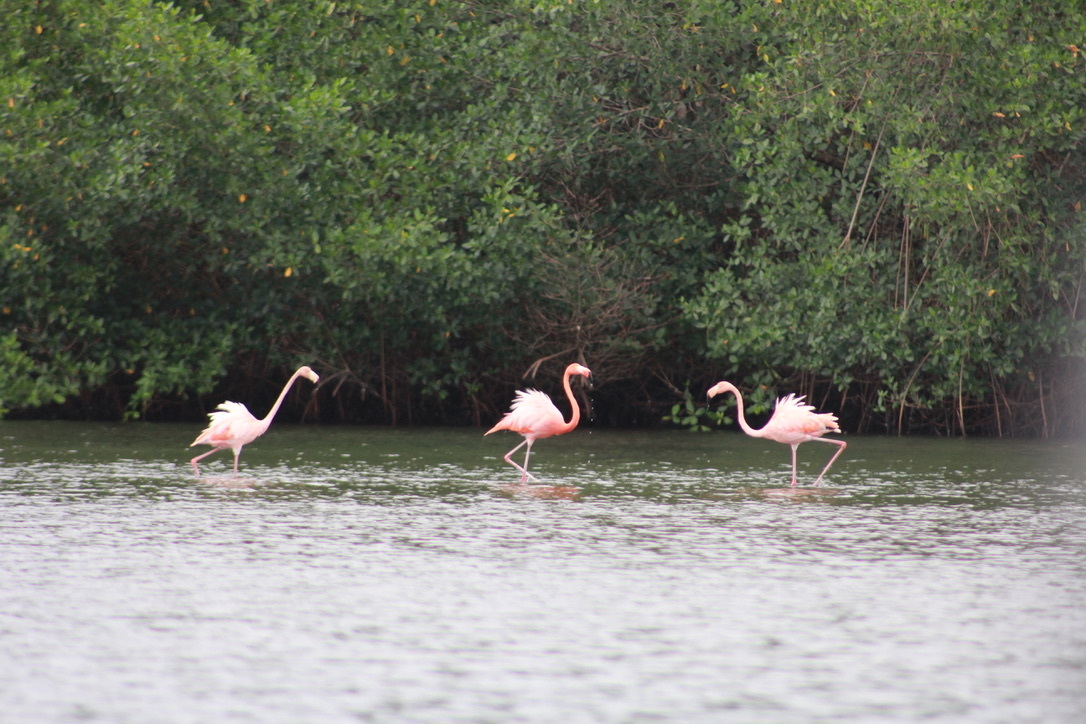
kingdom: Animalia
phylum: Chordata
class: Aves
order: Phoenicopteriformes
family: Phoenicopteridae
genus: Phoenicopterus
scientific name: Phoenicopterus ruber
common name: American flamingo
